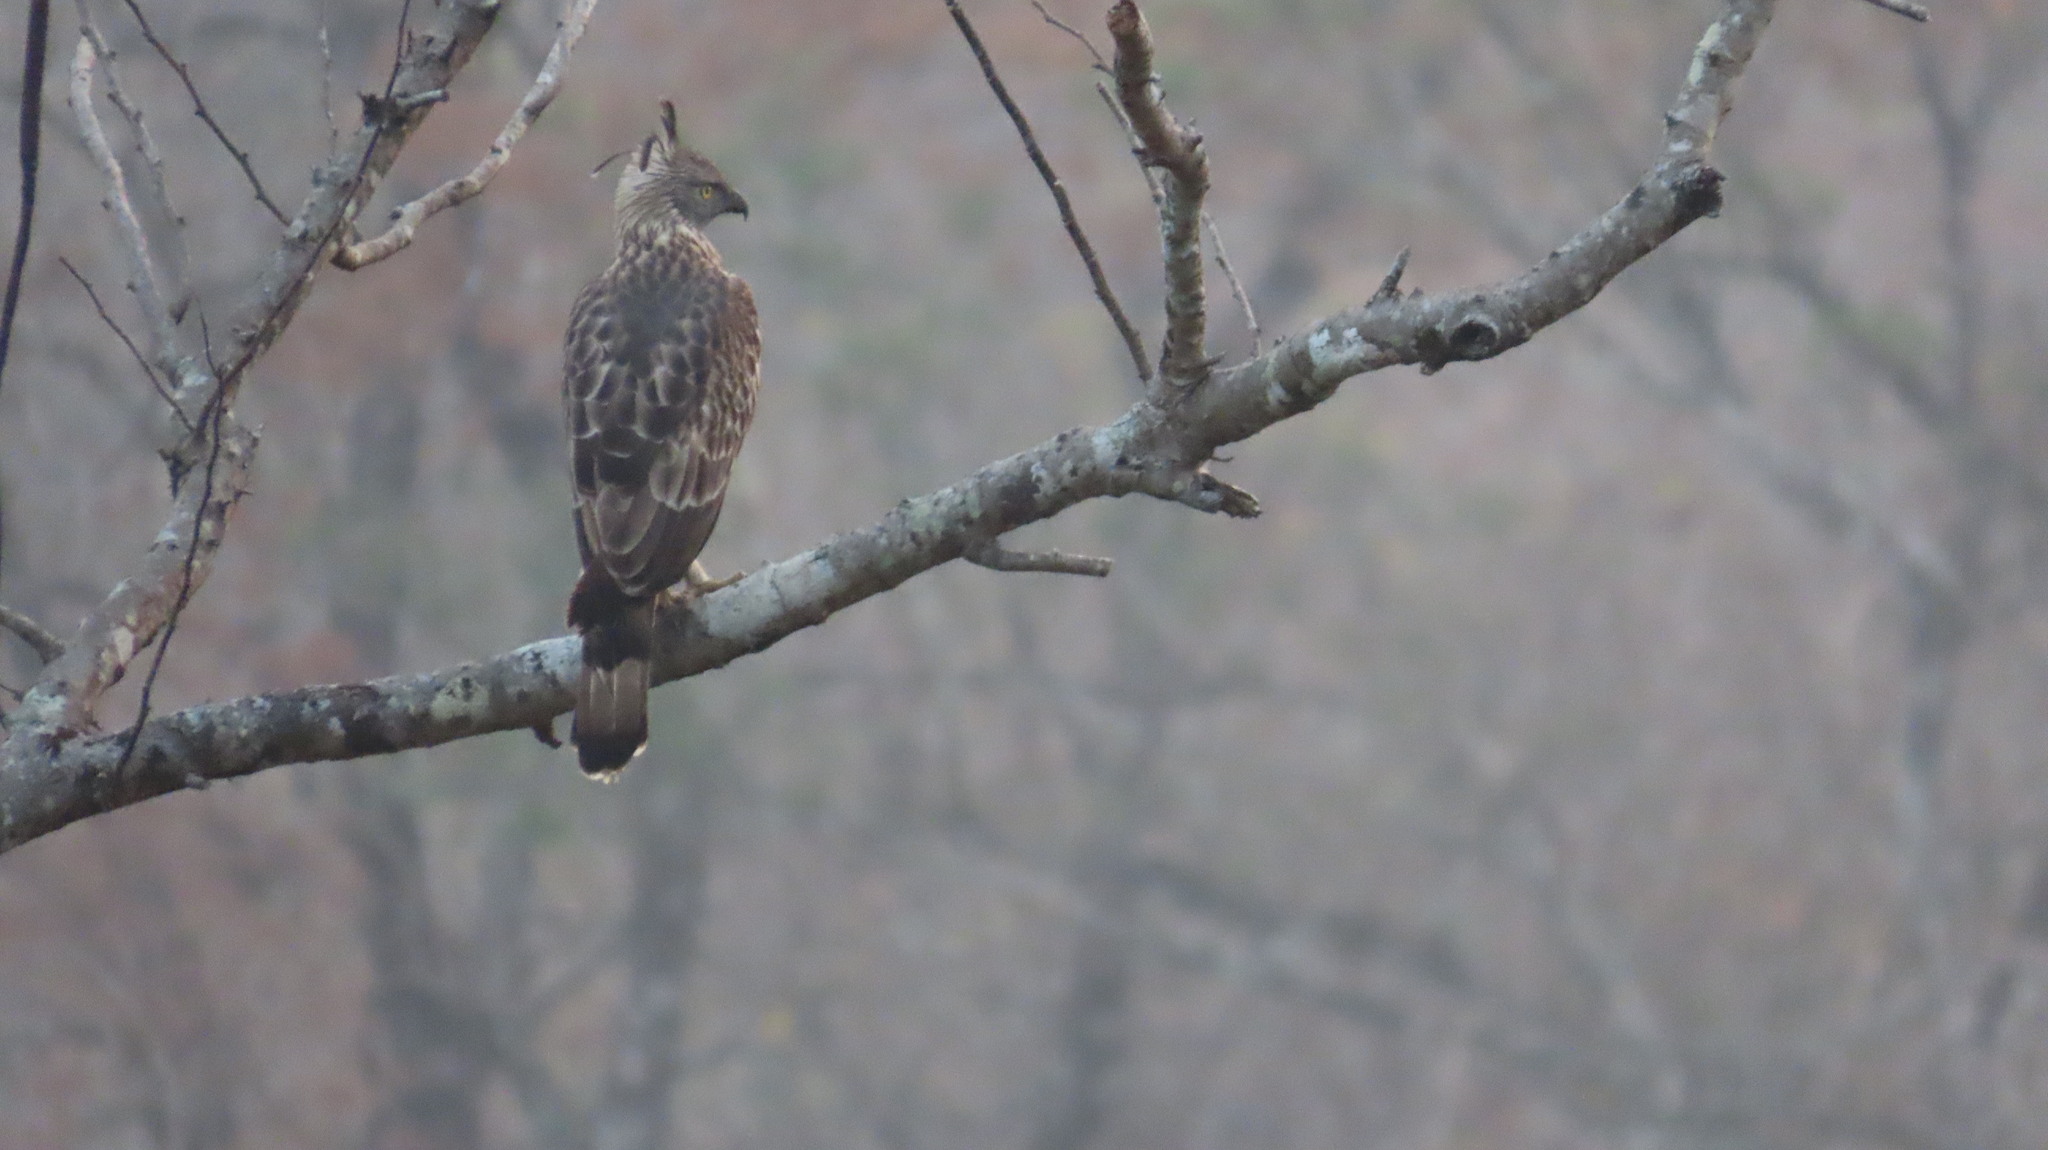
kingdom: Animalia
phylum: Chordata
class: Aves
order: Accipitriformes
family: Accipitridae
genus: Nisaetus
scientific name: Nisaetus cirrhatus
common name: Changeable hawk-eagle
